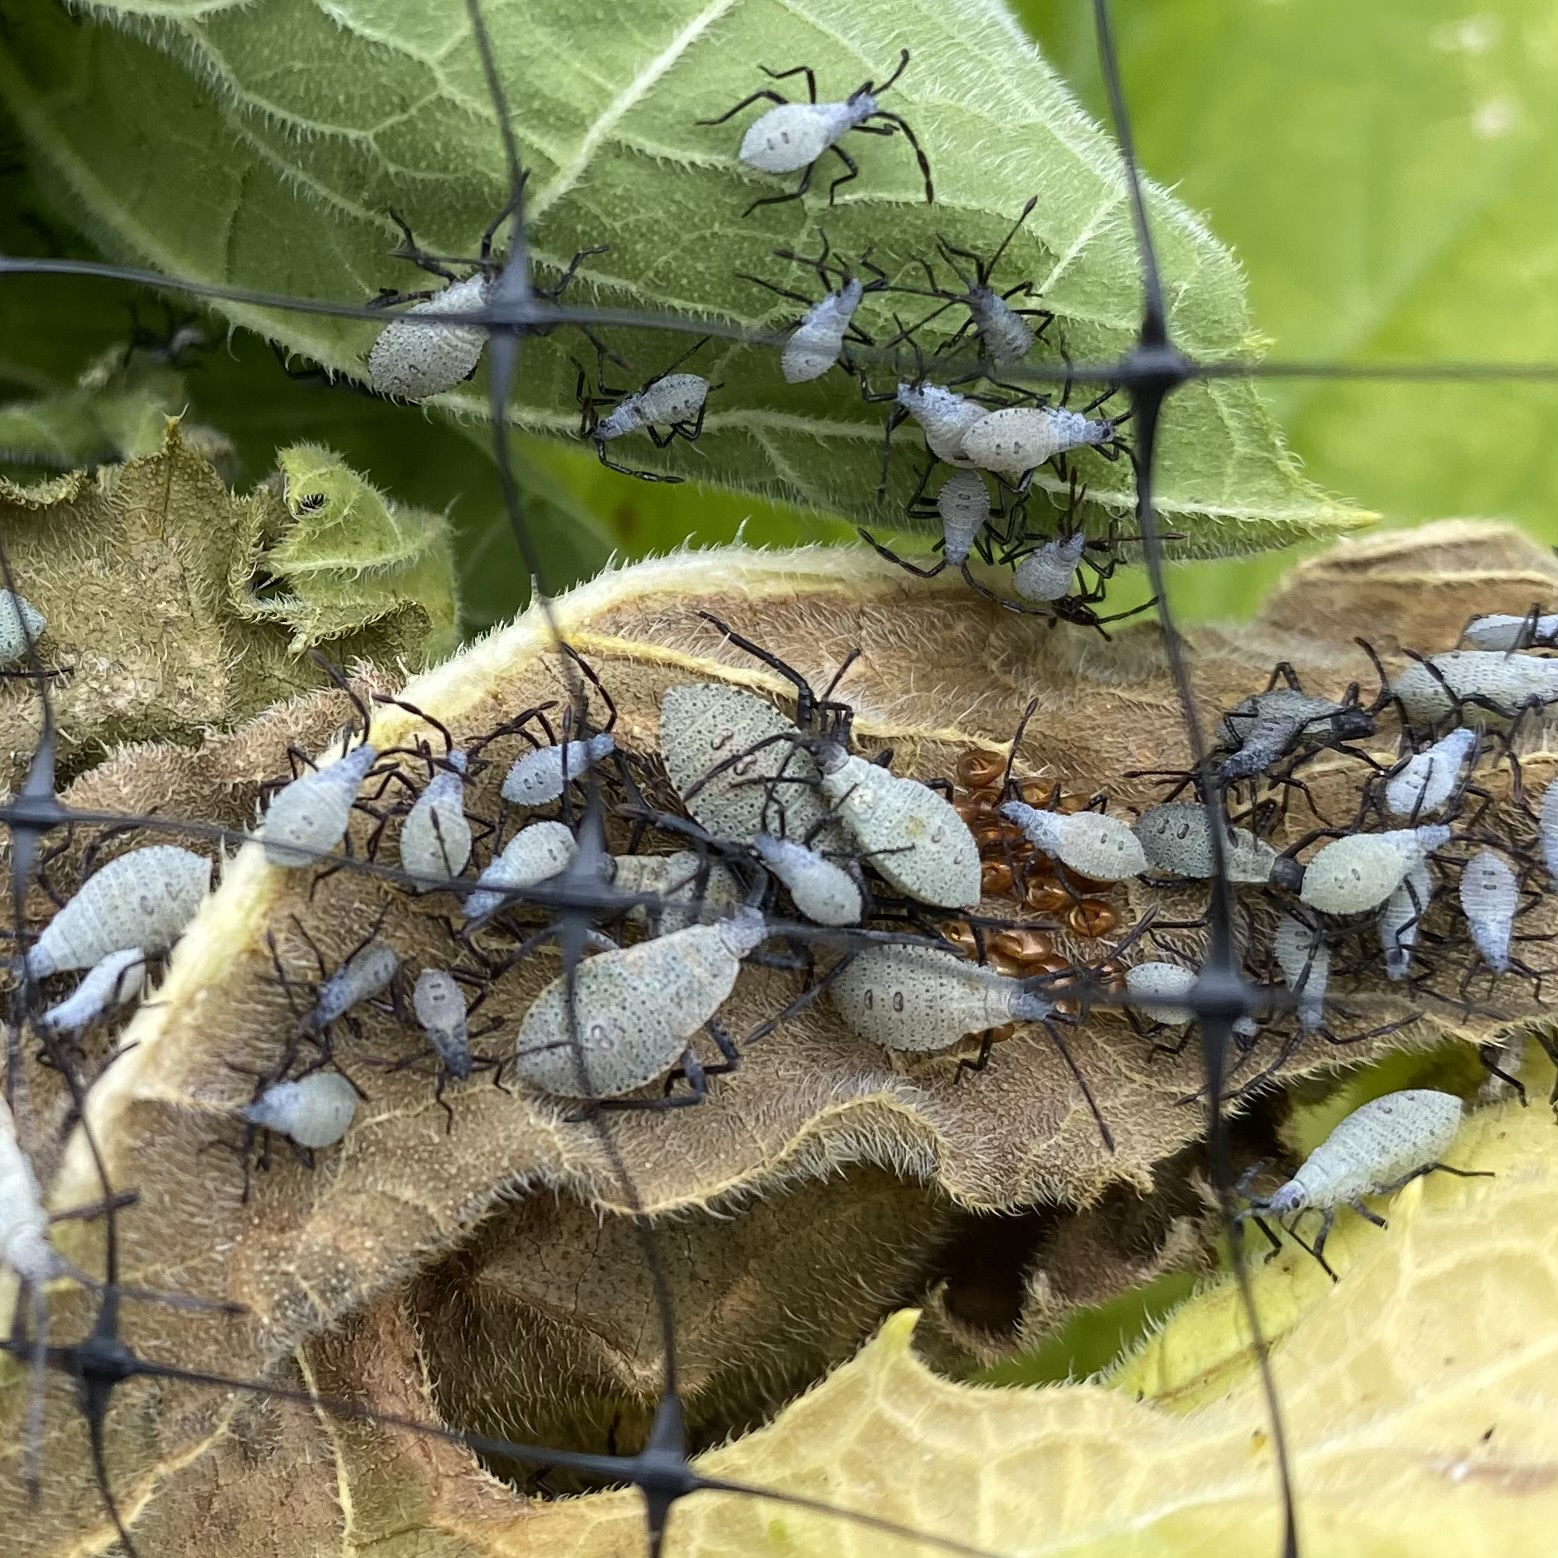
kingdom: Animalia
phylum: Arthropoda
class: Insecta
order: Hemiptera
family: Coreidae
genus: Anasa
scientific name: Anasa tristis
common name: Squash bug
